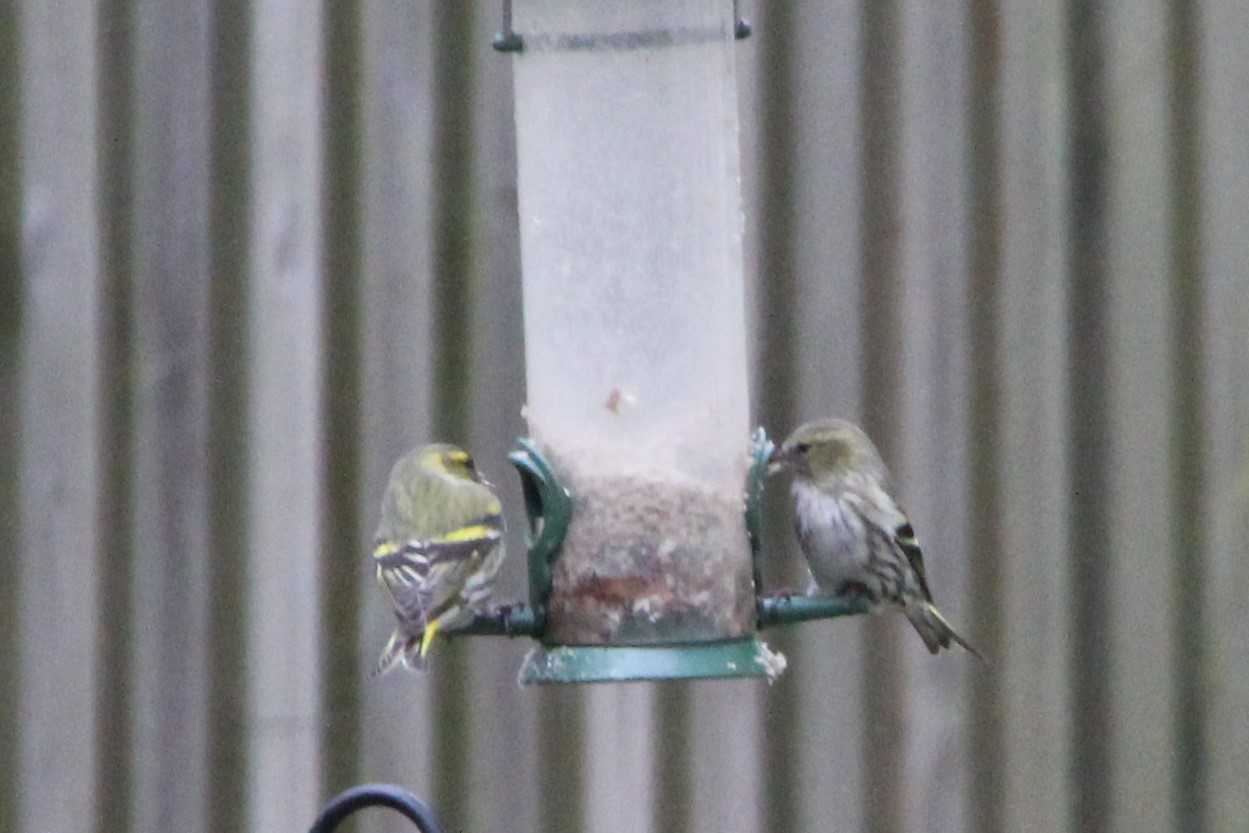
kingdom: Animalia
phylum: Chordata
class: Aves
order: Passeriformes
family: Fringillidae
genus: Spinus
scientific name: Spinus spinus
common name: Eurasian siskin
